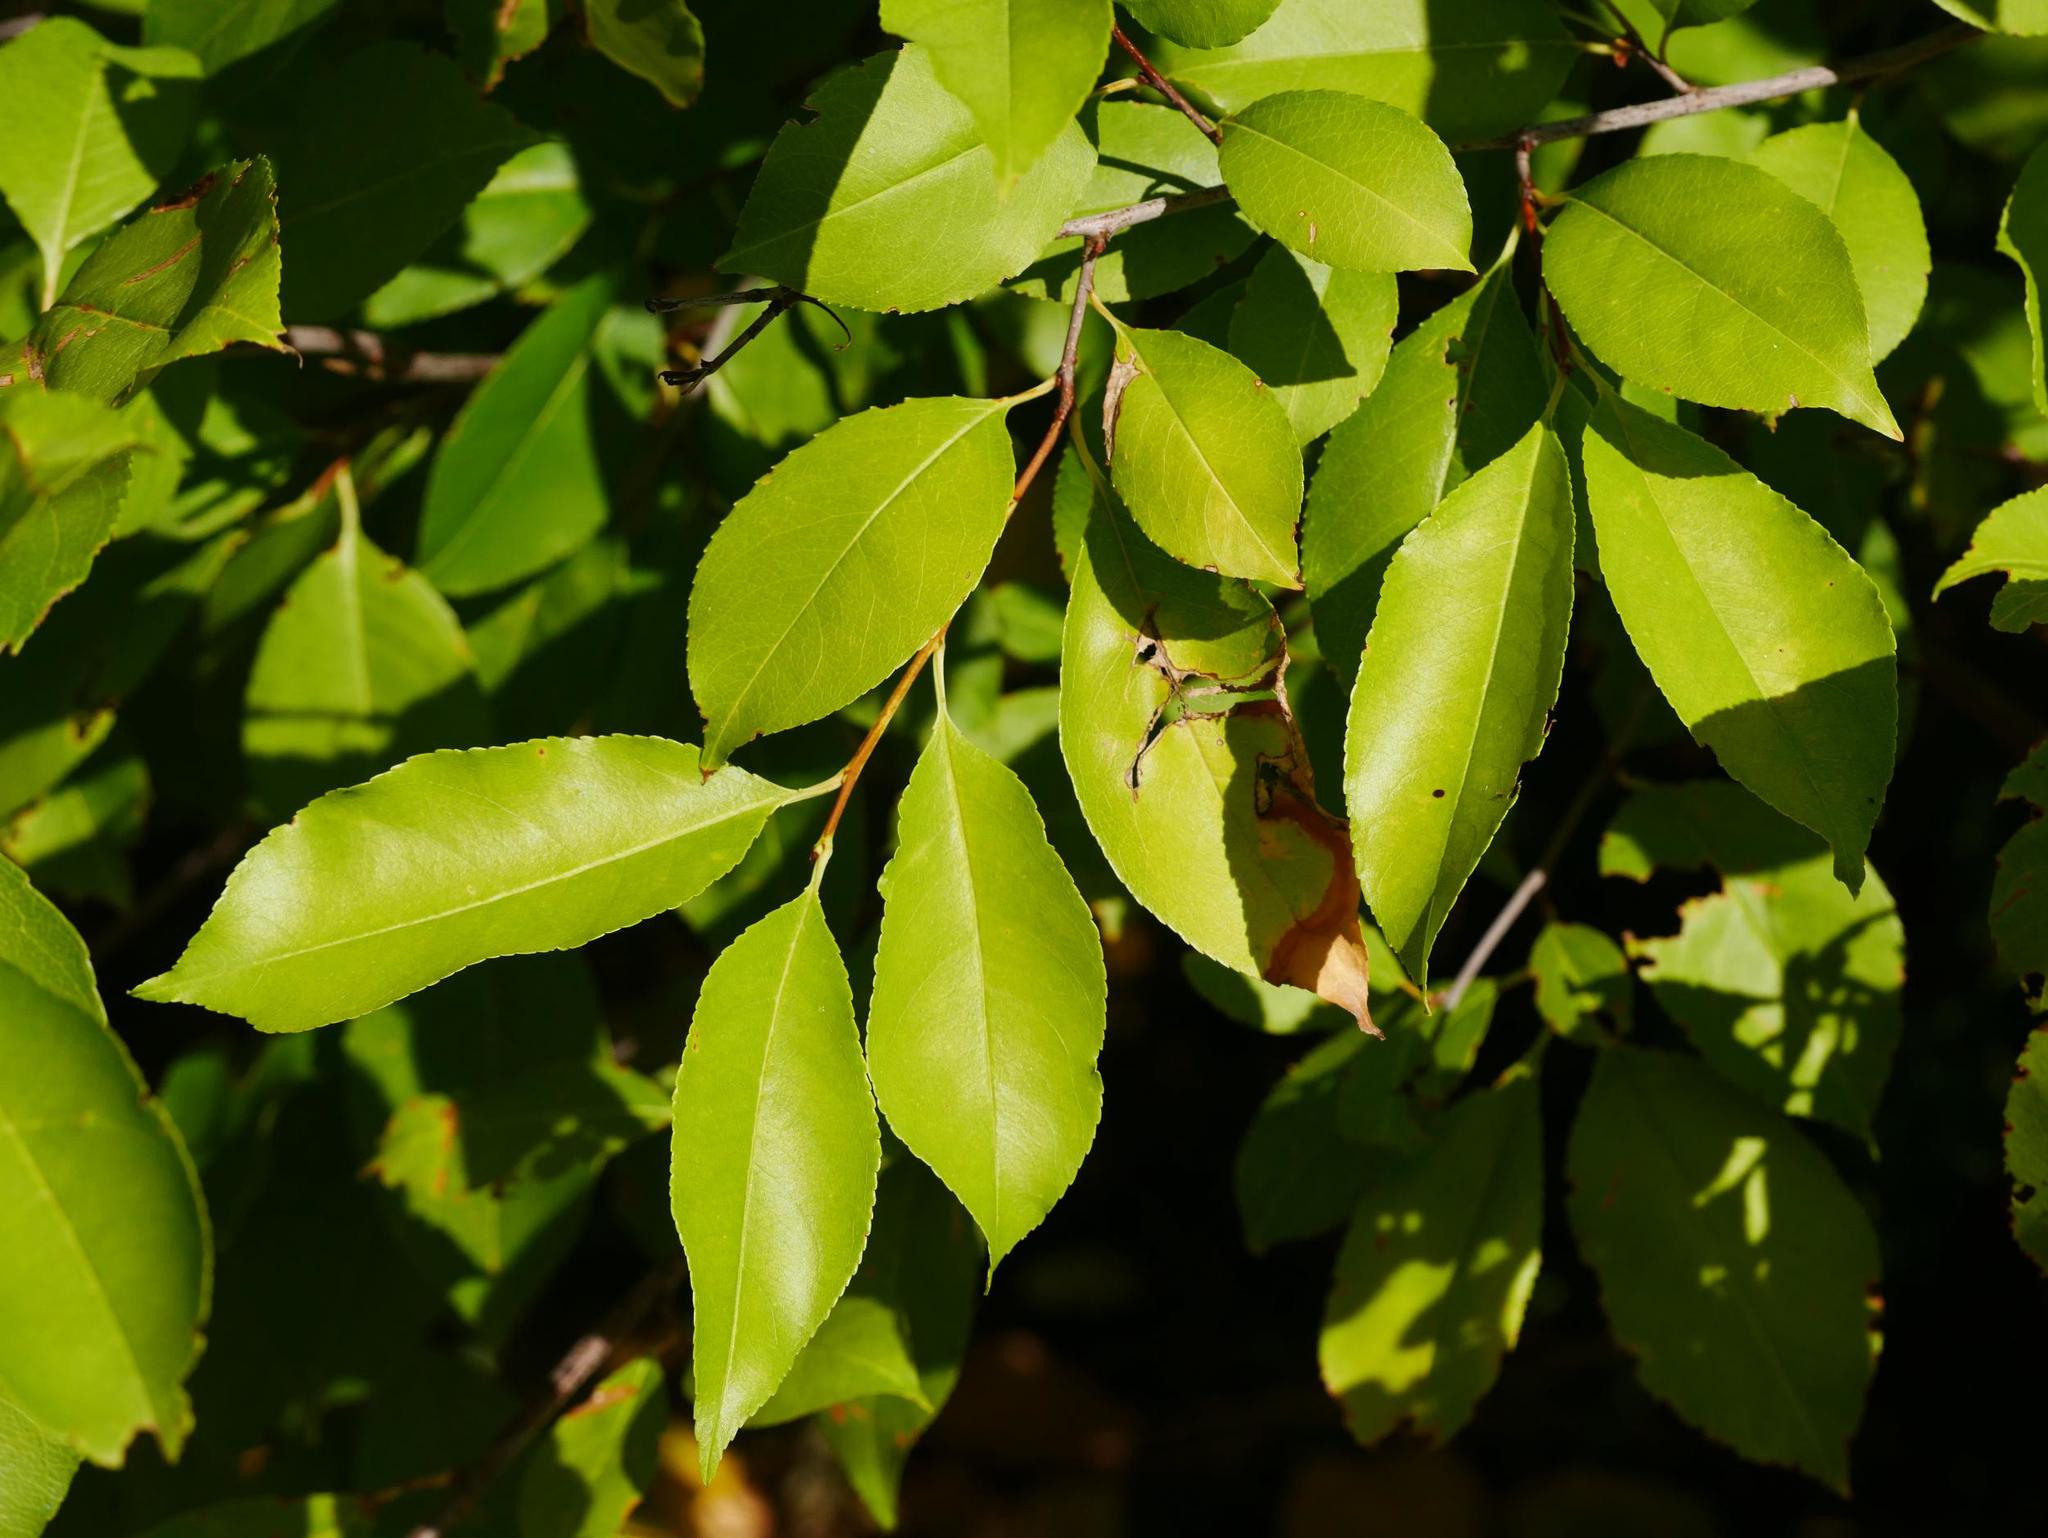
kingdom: Plantae
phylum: Tracheophyta
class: Magnoliopsida
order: Rosales
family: Rosaceae
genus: Prunus
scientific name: Prunus serotina
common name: Black cherry
